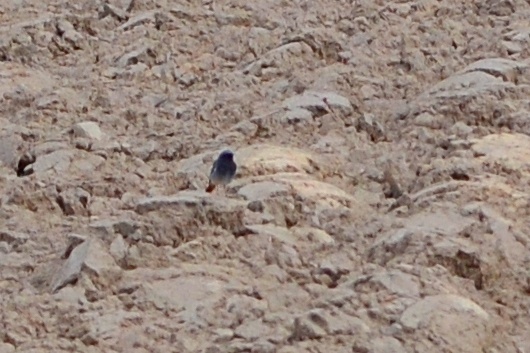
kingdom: Animalia
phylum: Chordata
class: Aves
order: Passeriformes
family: Muscicapidae
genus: Phoenicurus
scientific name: Phoenicurus ochruros
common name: Black redstart
